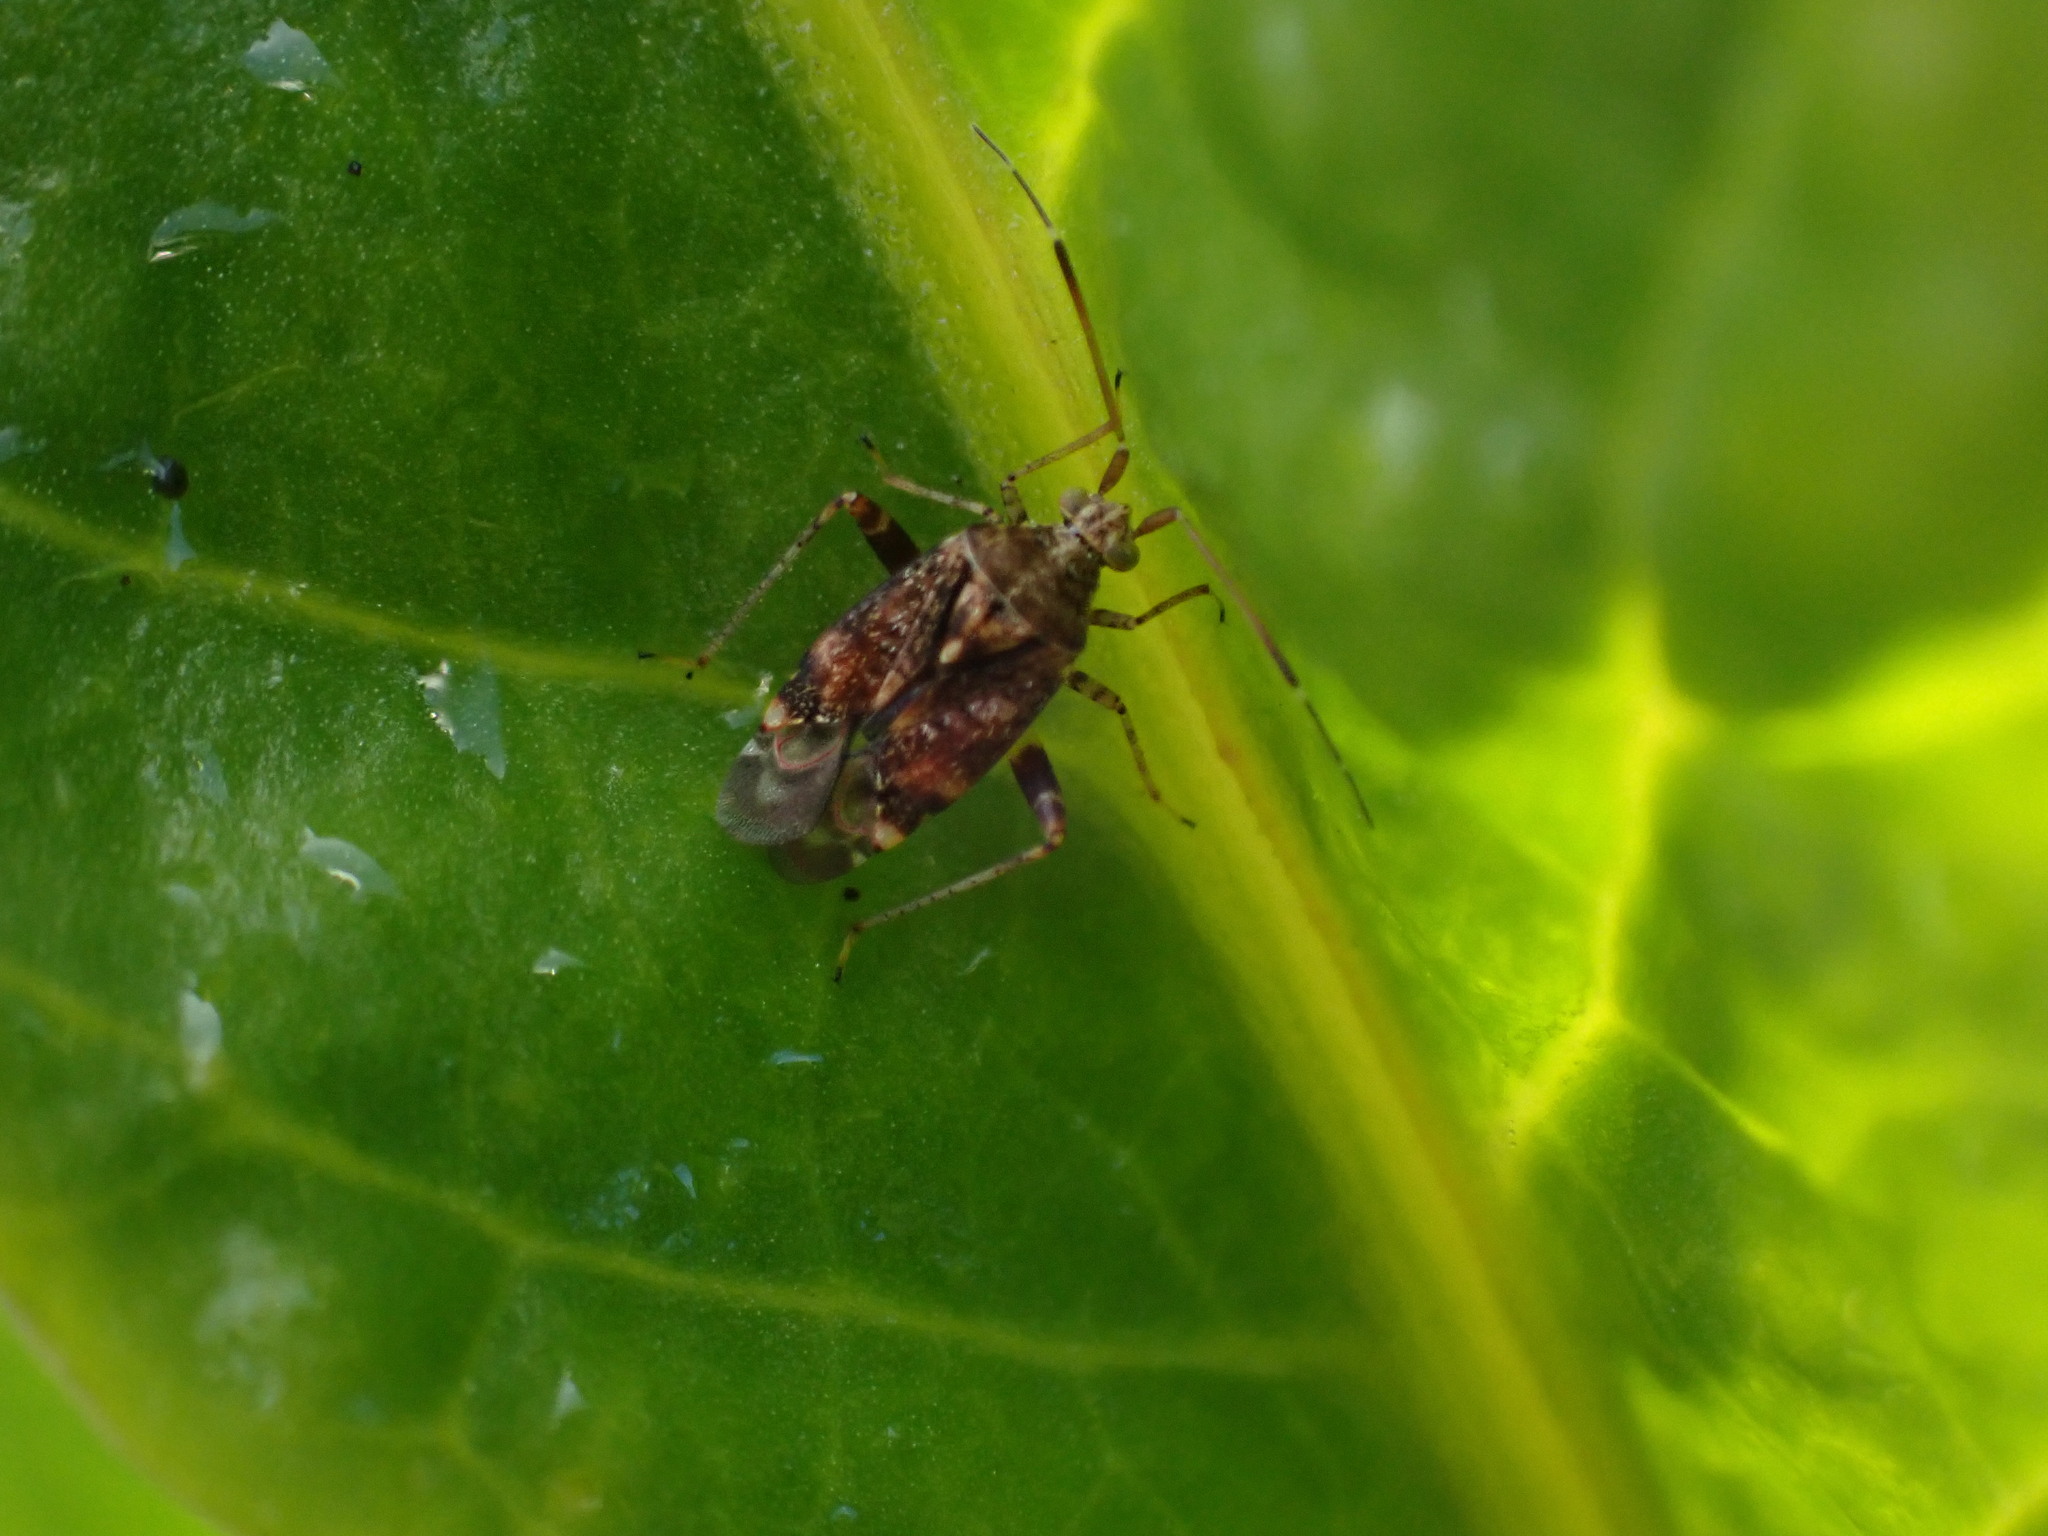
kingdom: Animalia
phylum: Arthropoda
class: Insecta
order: Hemiptera
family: Miridae
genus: Sidnia
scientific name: Sidnia kinbergi
